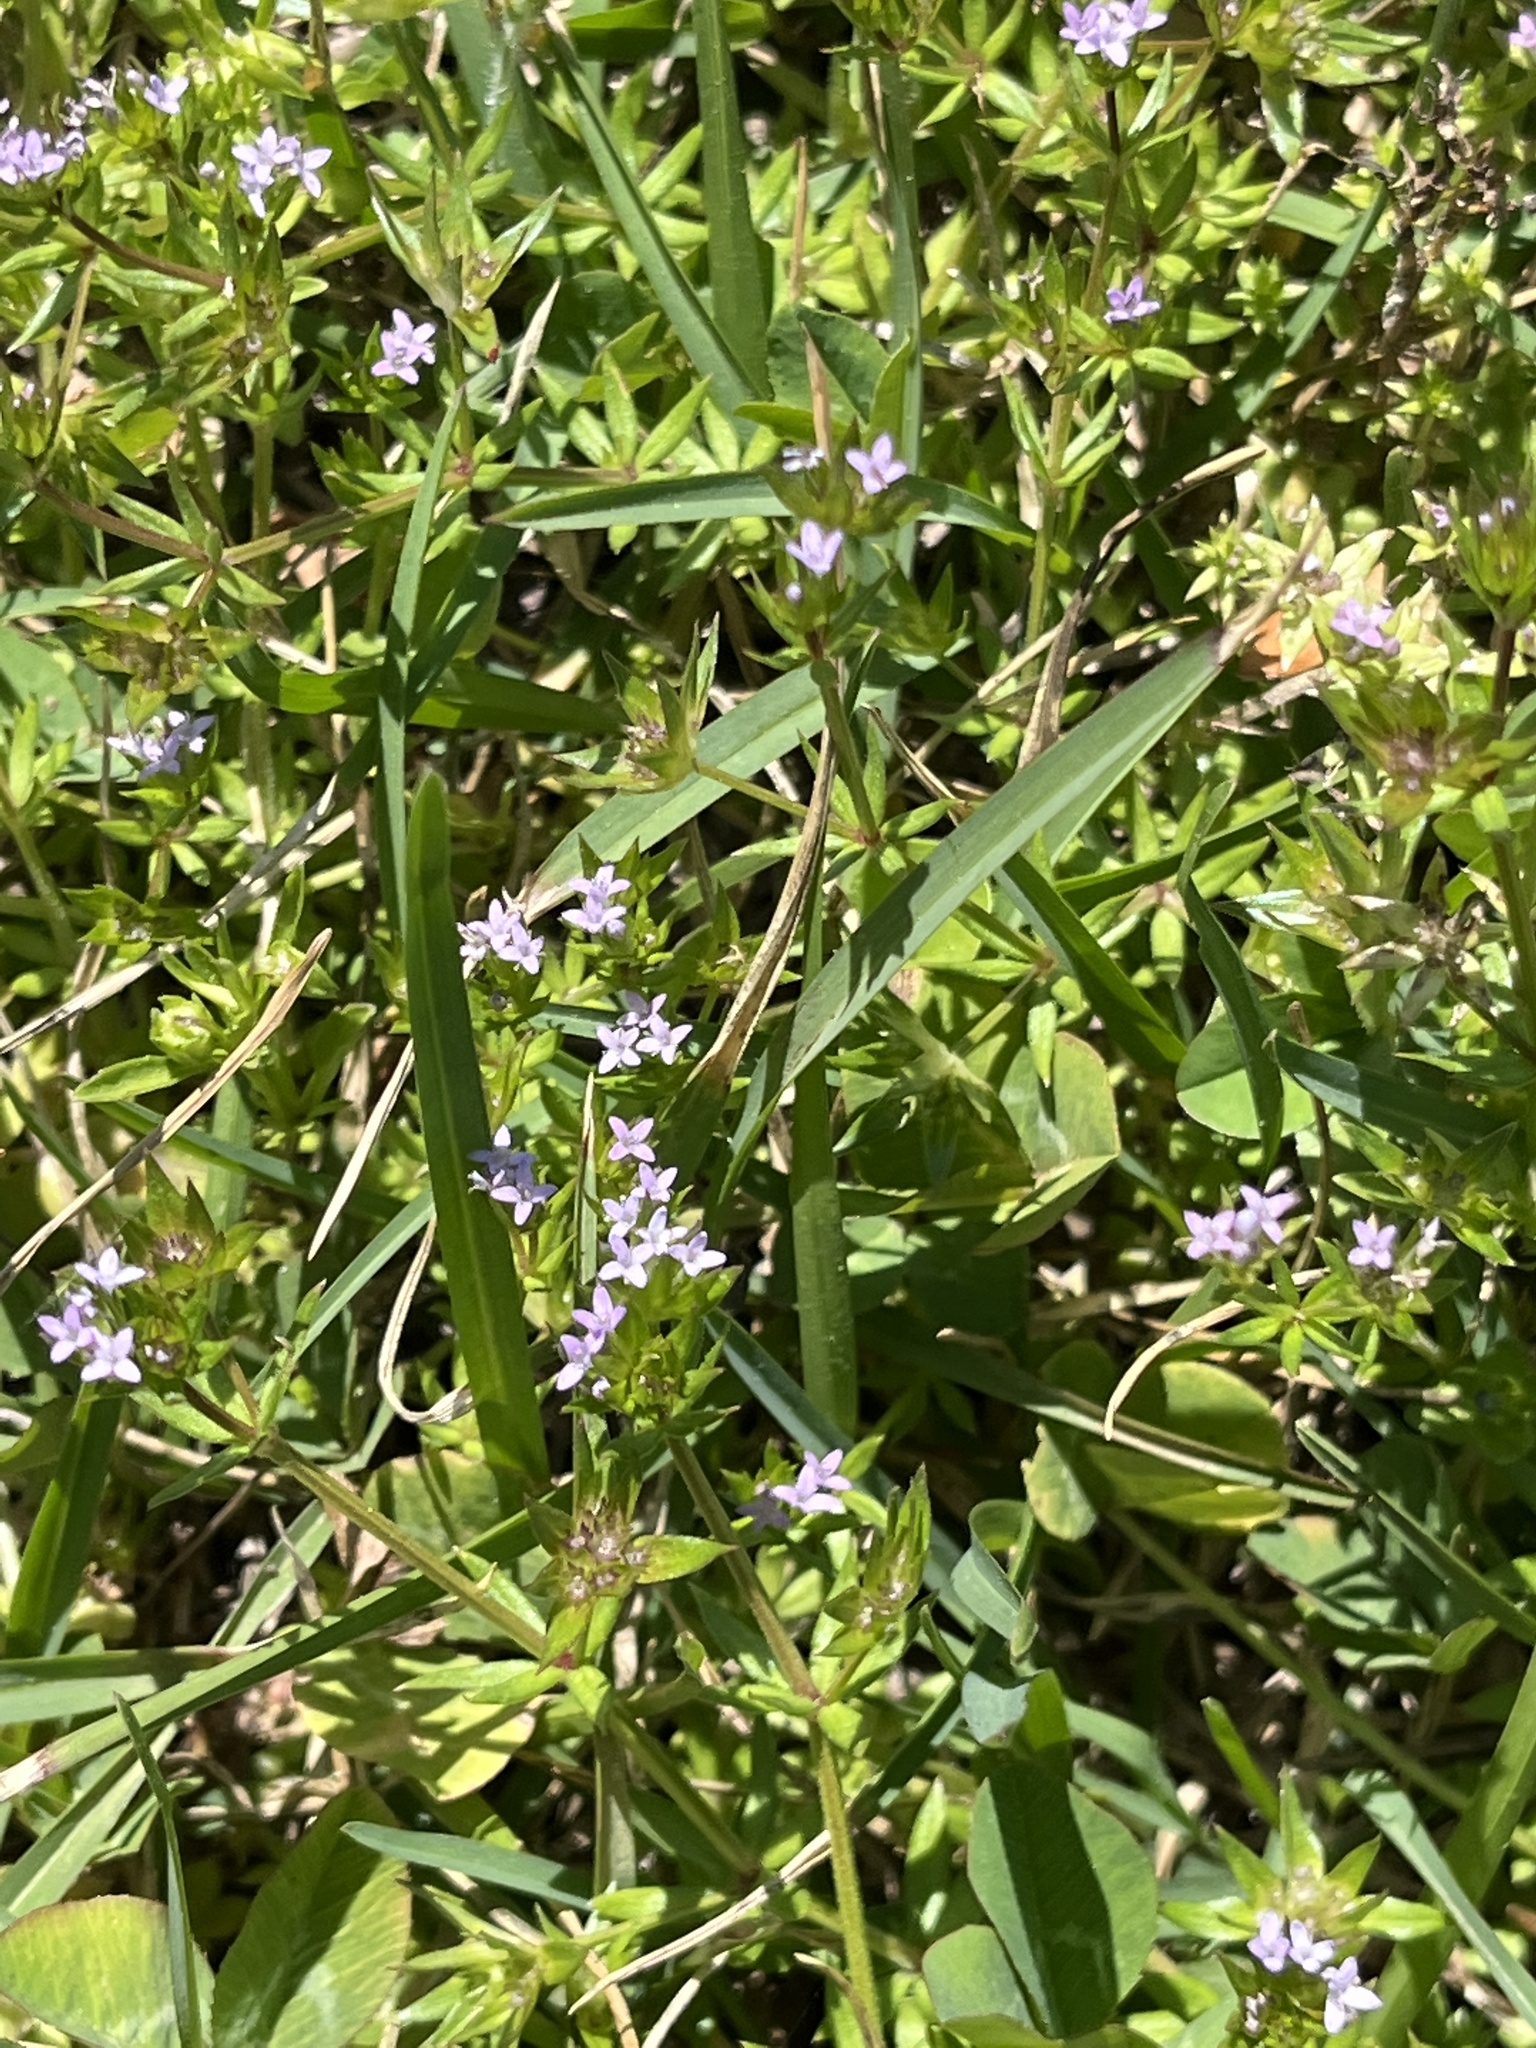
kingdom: Plantae
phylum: Tracheophyta
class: Magnoliopsida
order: Gentianales
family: Rubiaceae
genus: Sherardia
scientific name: Sherardia arvensis
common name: Field madder
